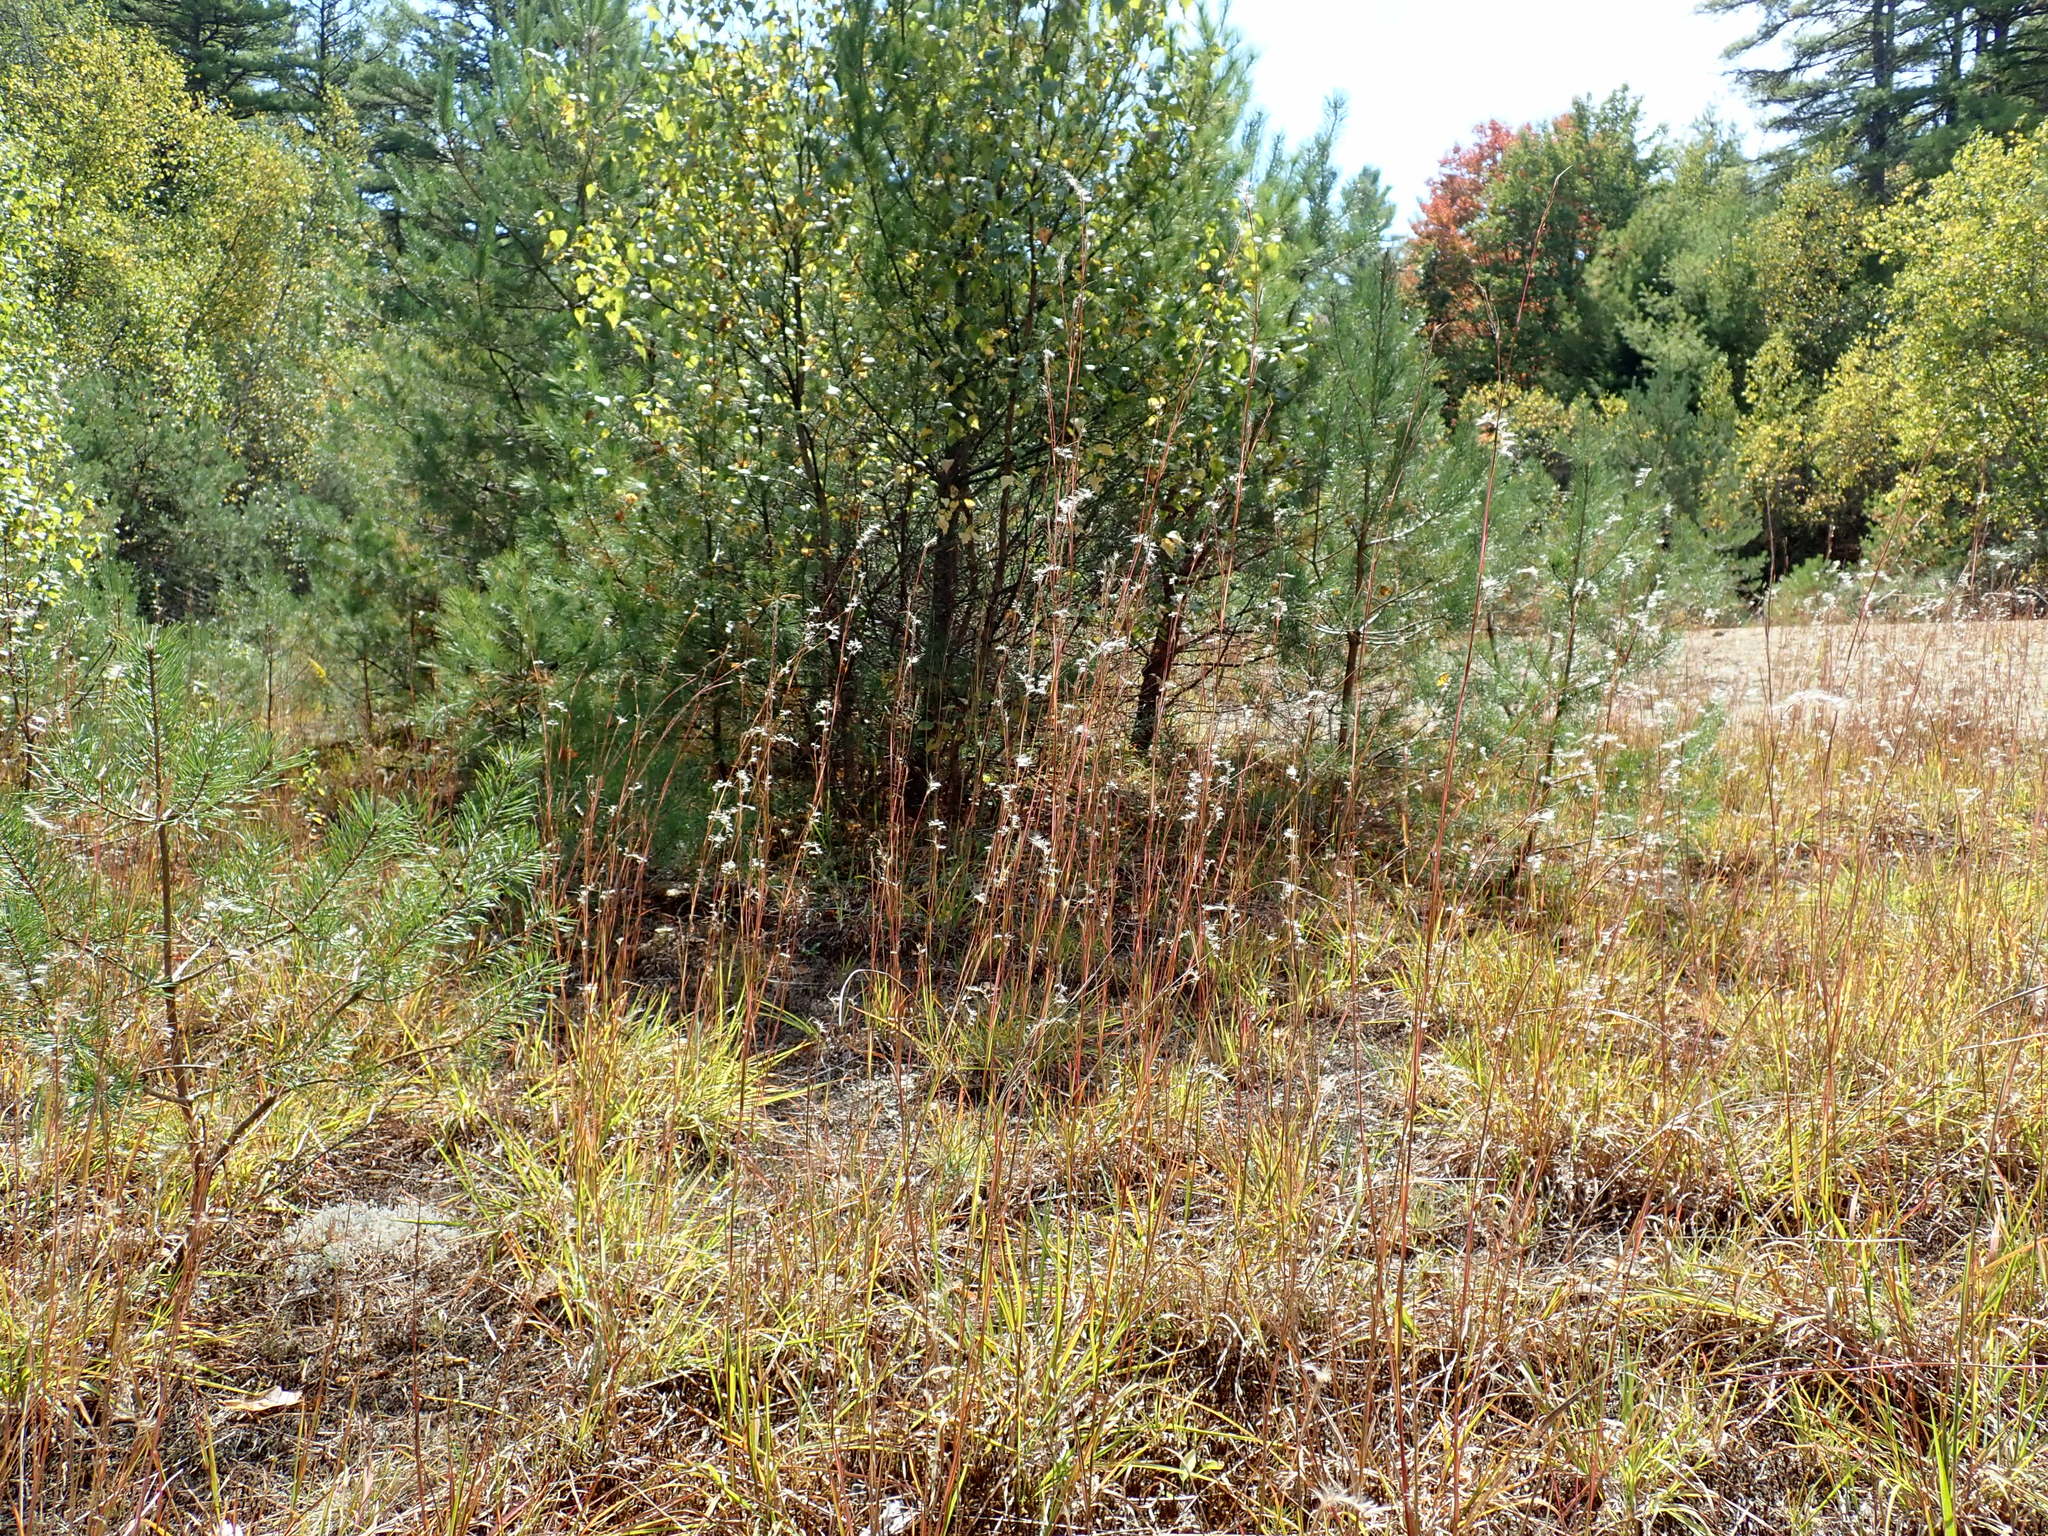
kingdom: Plantae
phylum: Tracheophyta
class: Liliopsida
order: Poales
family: Poaceae
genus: Schizachyrium
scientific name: Schizachyrium scoparium
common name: Little bluestem
